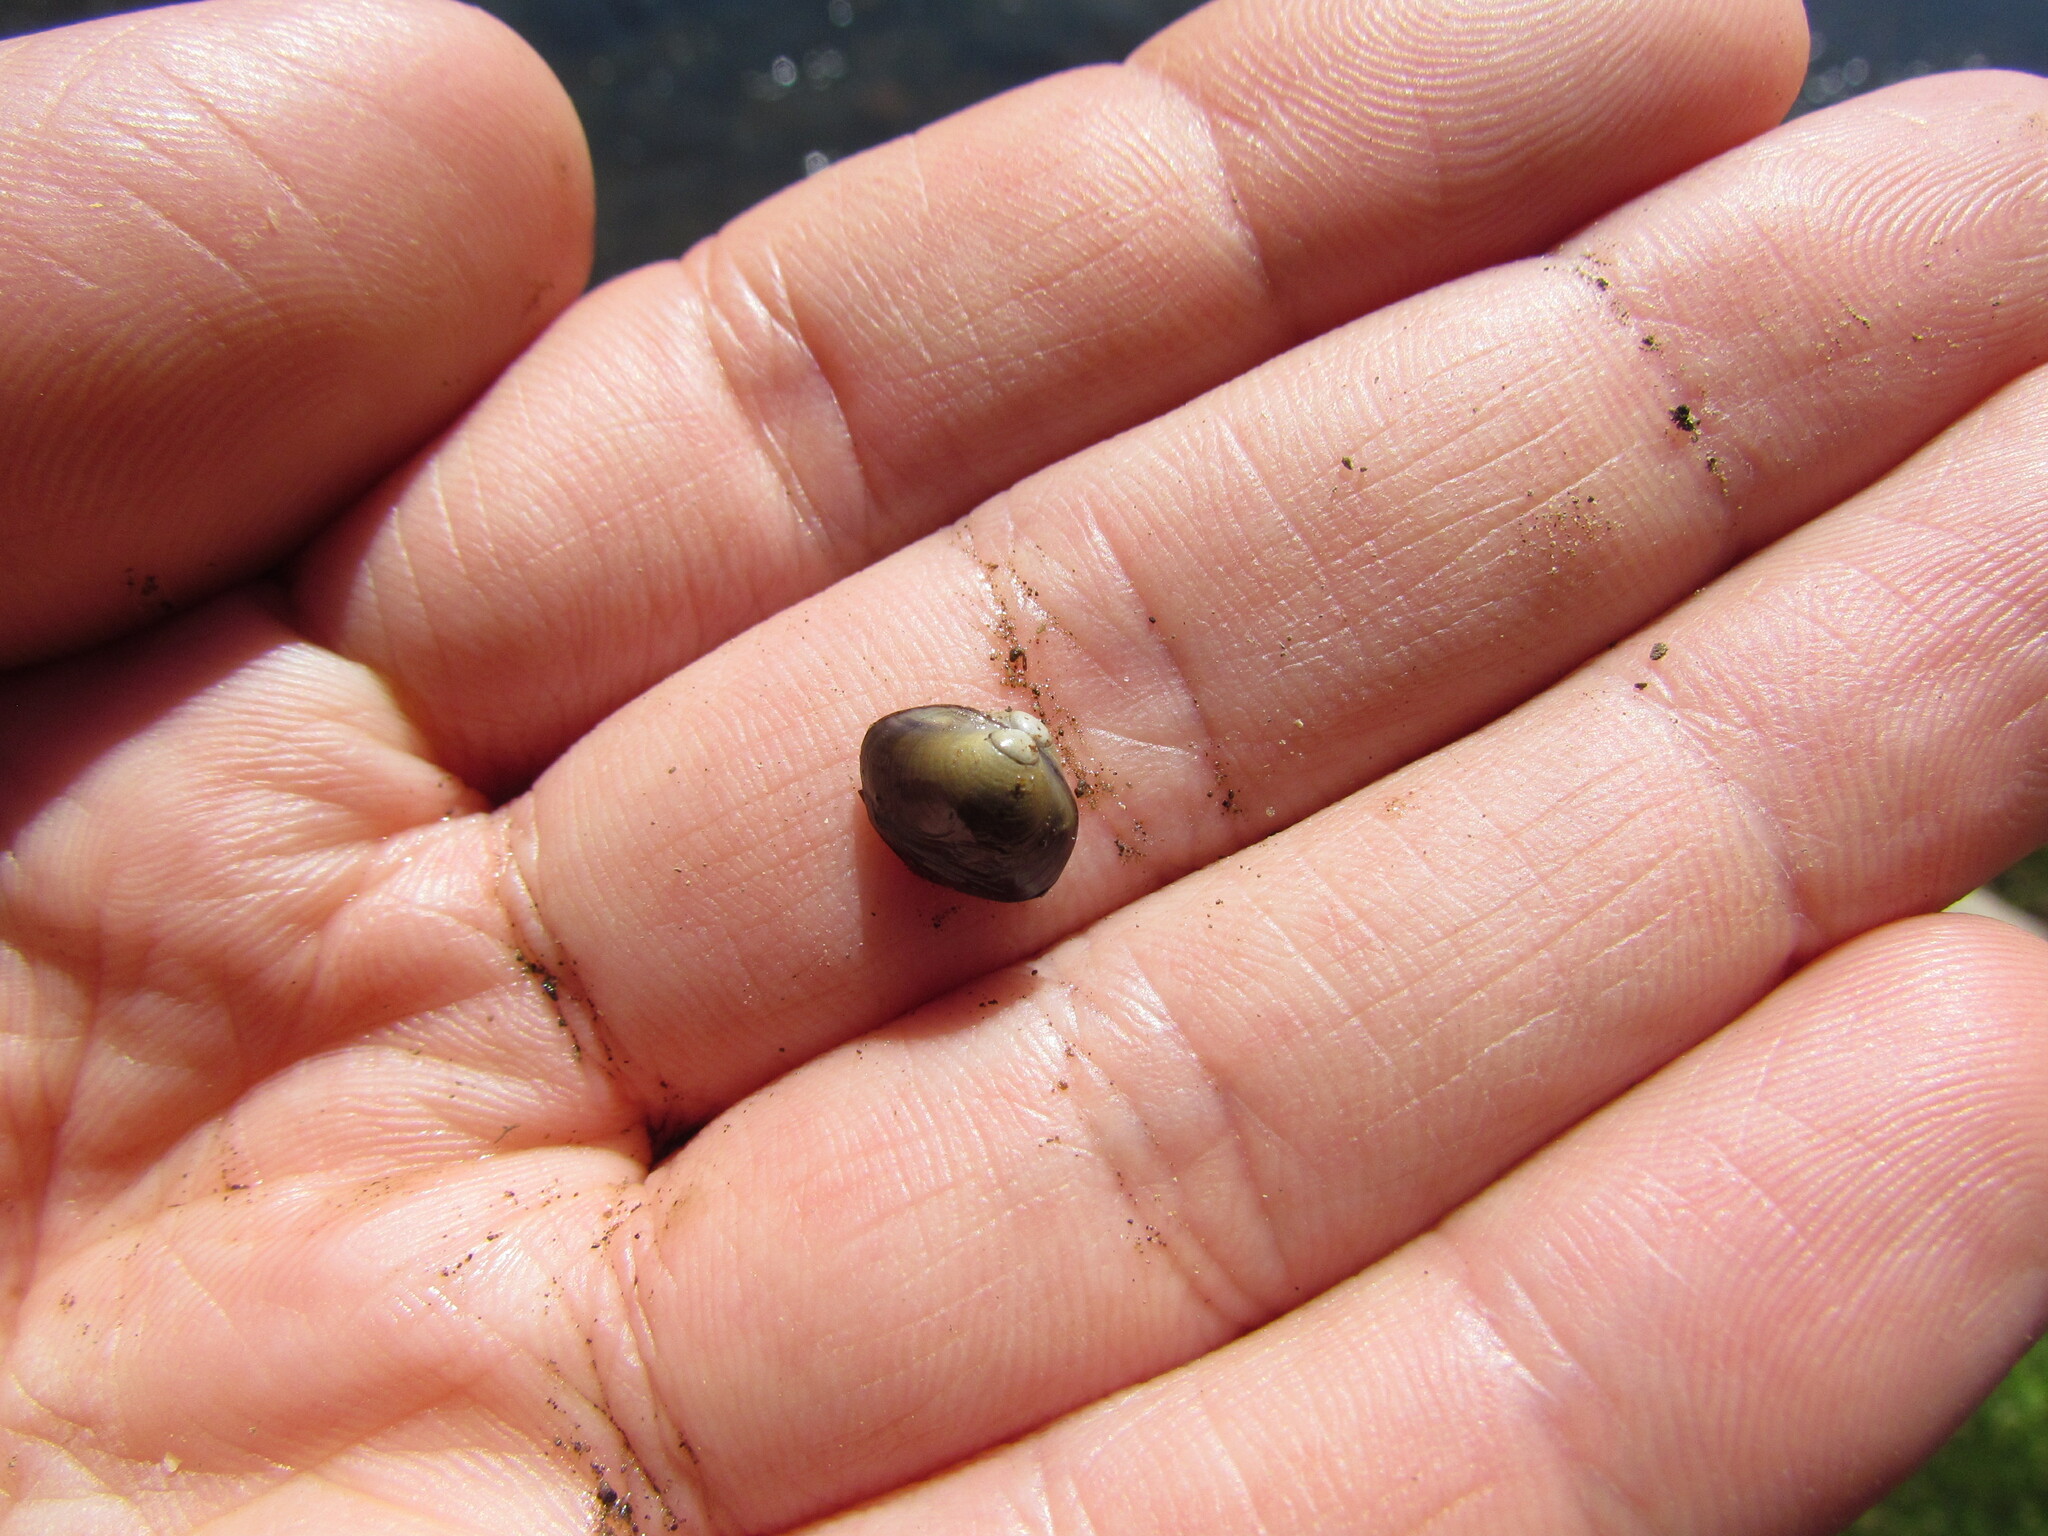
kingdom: Animalia
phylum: Mollusca
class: Bivalvia
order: Sphaeriida
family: Sphaeriidae
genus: Musculium
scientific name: Musculium patagonicum
